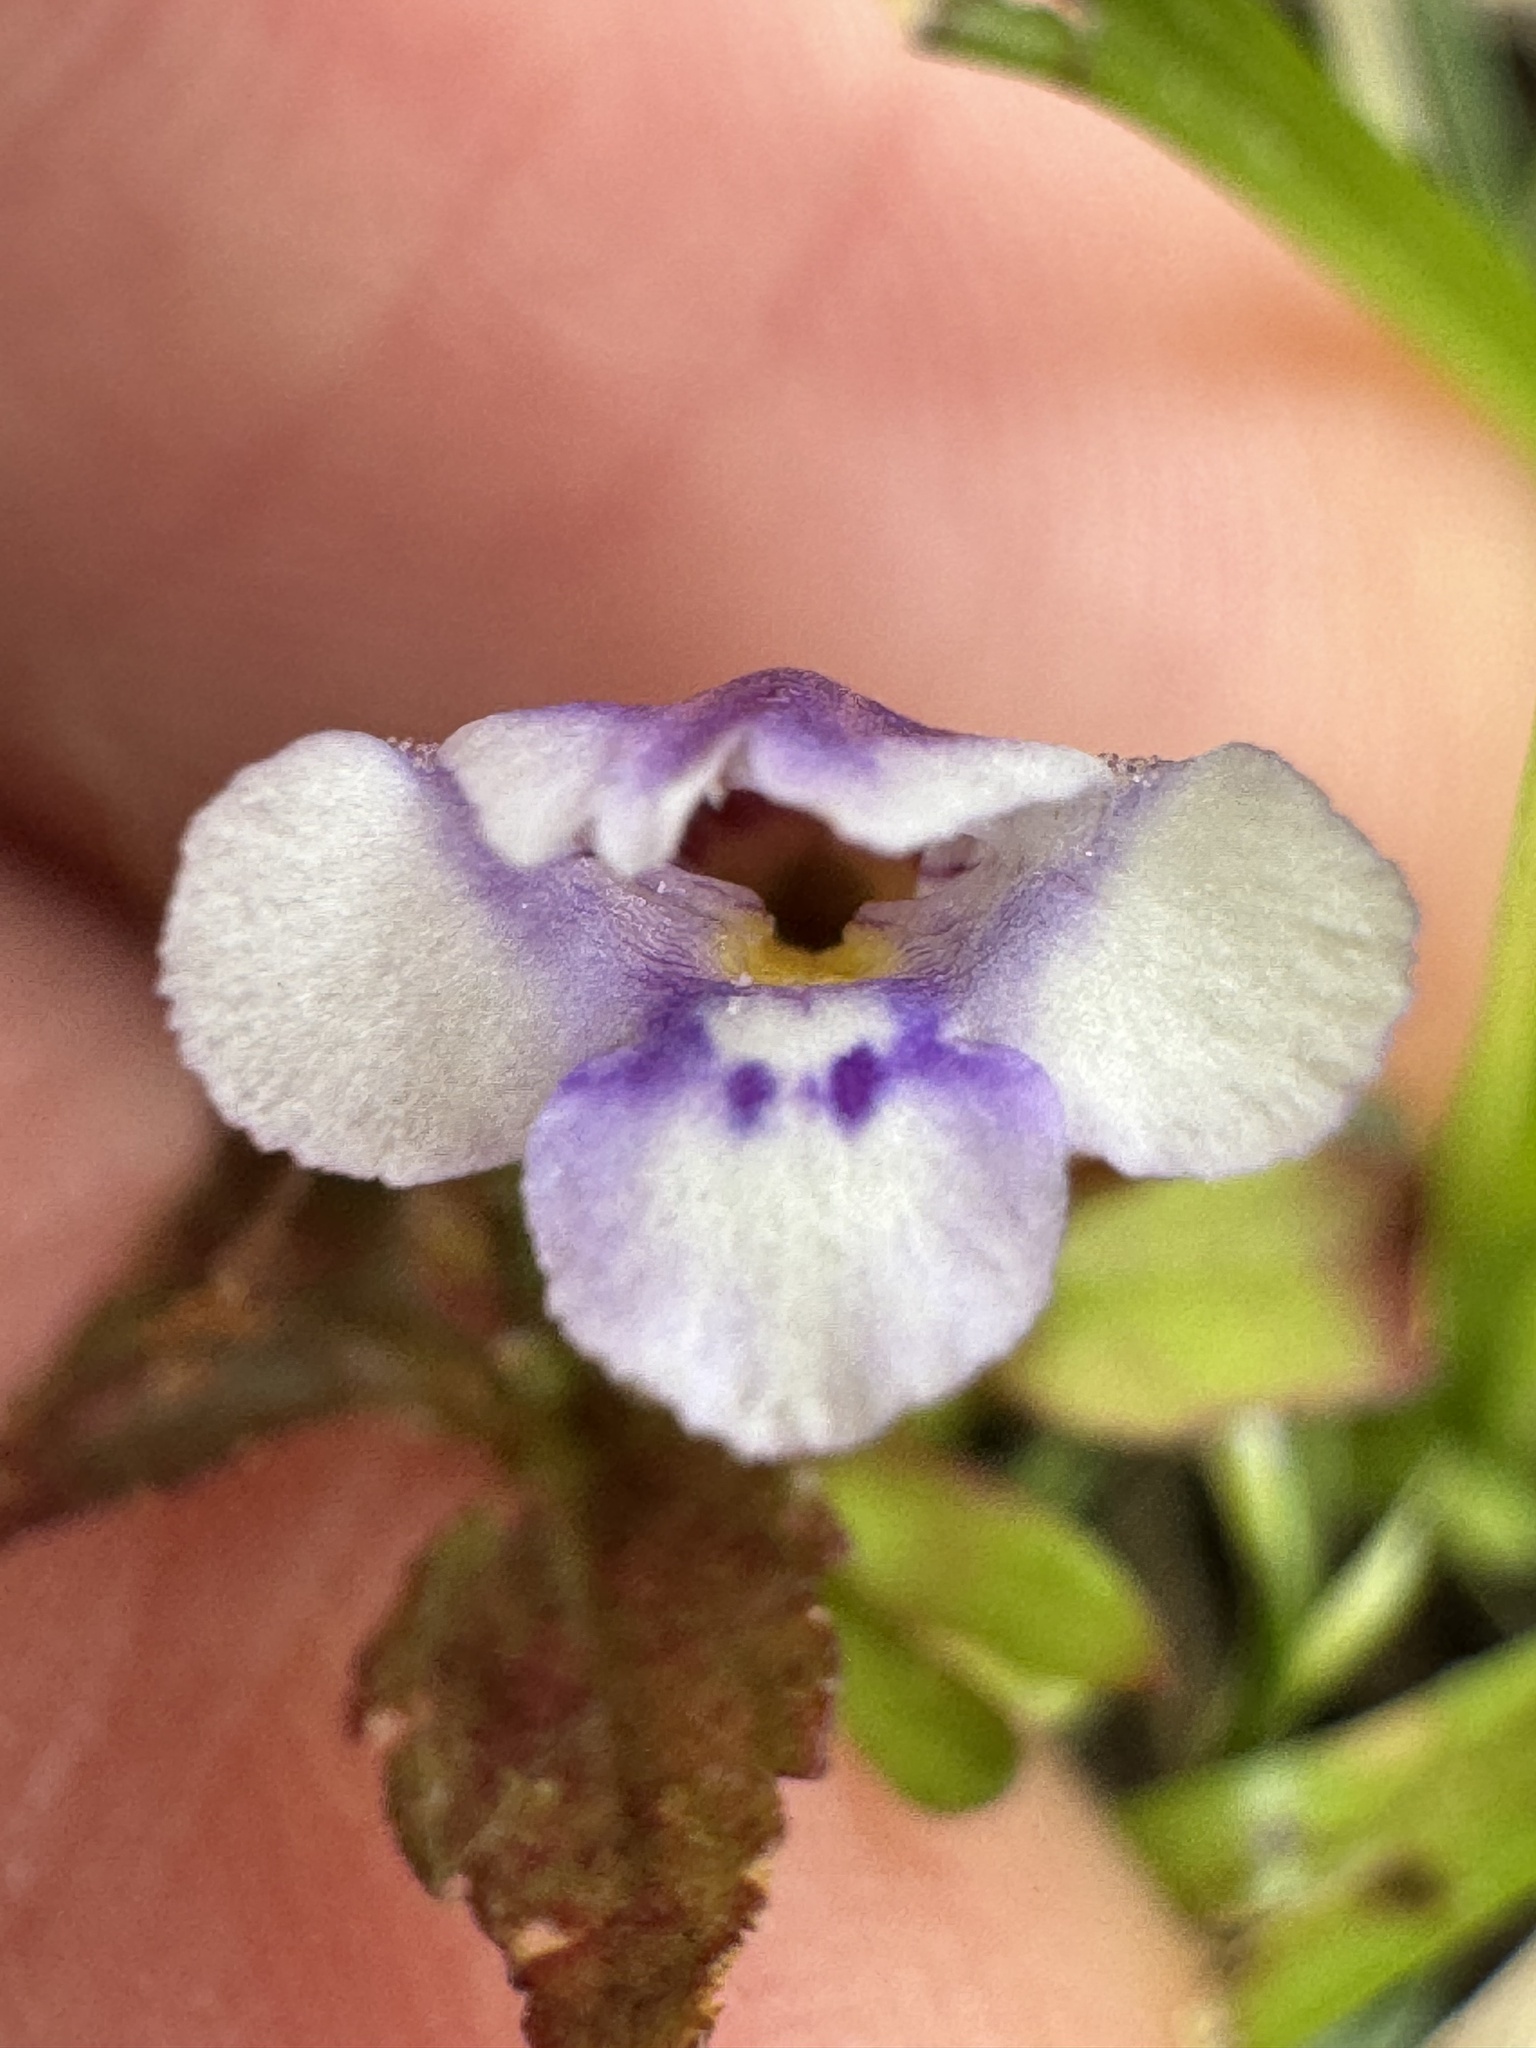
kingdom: Plantae
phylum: Tracheophyta
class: Magnoliopsida
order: Lamiales
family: Linderniaceae
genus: Torenia
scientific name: Torenia crustacea
